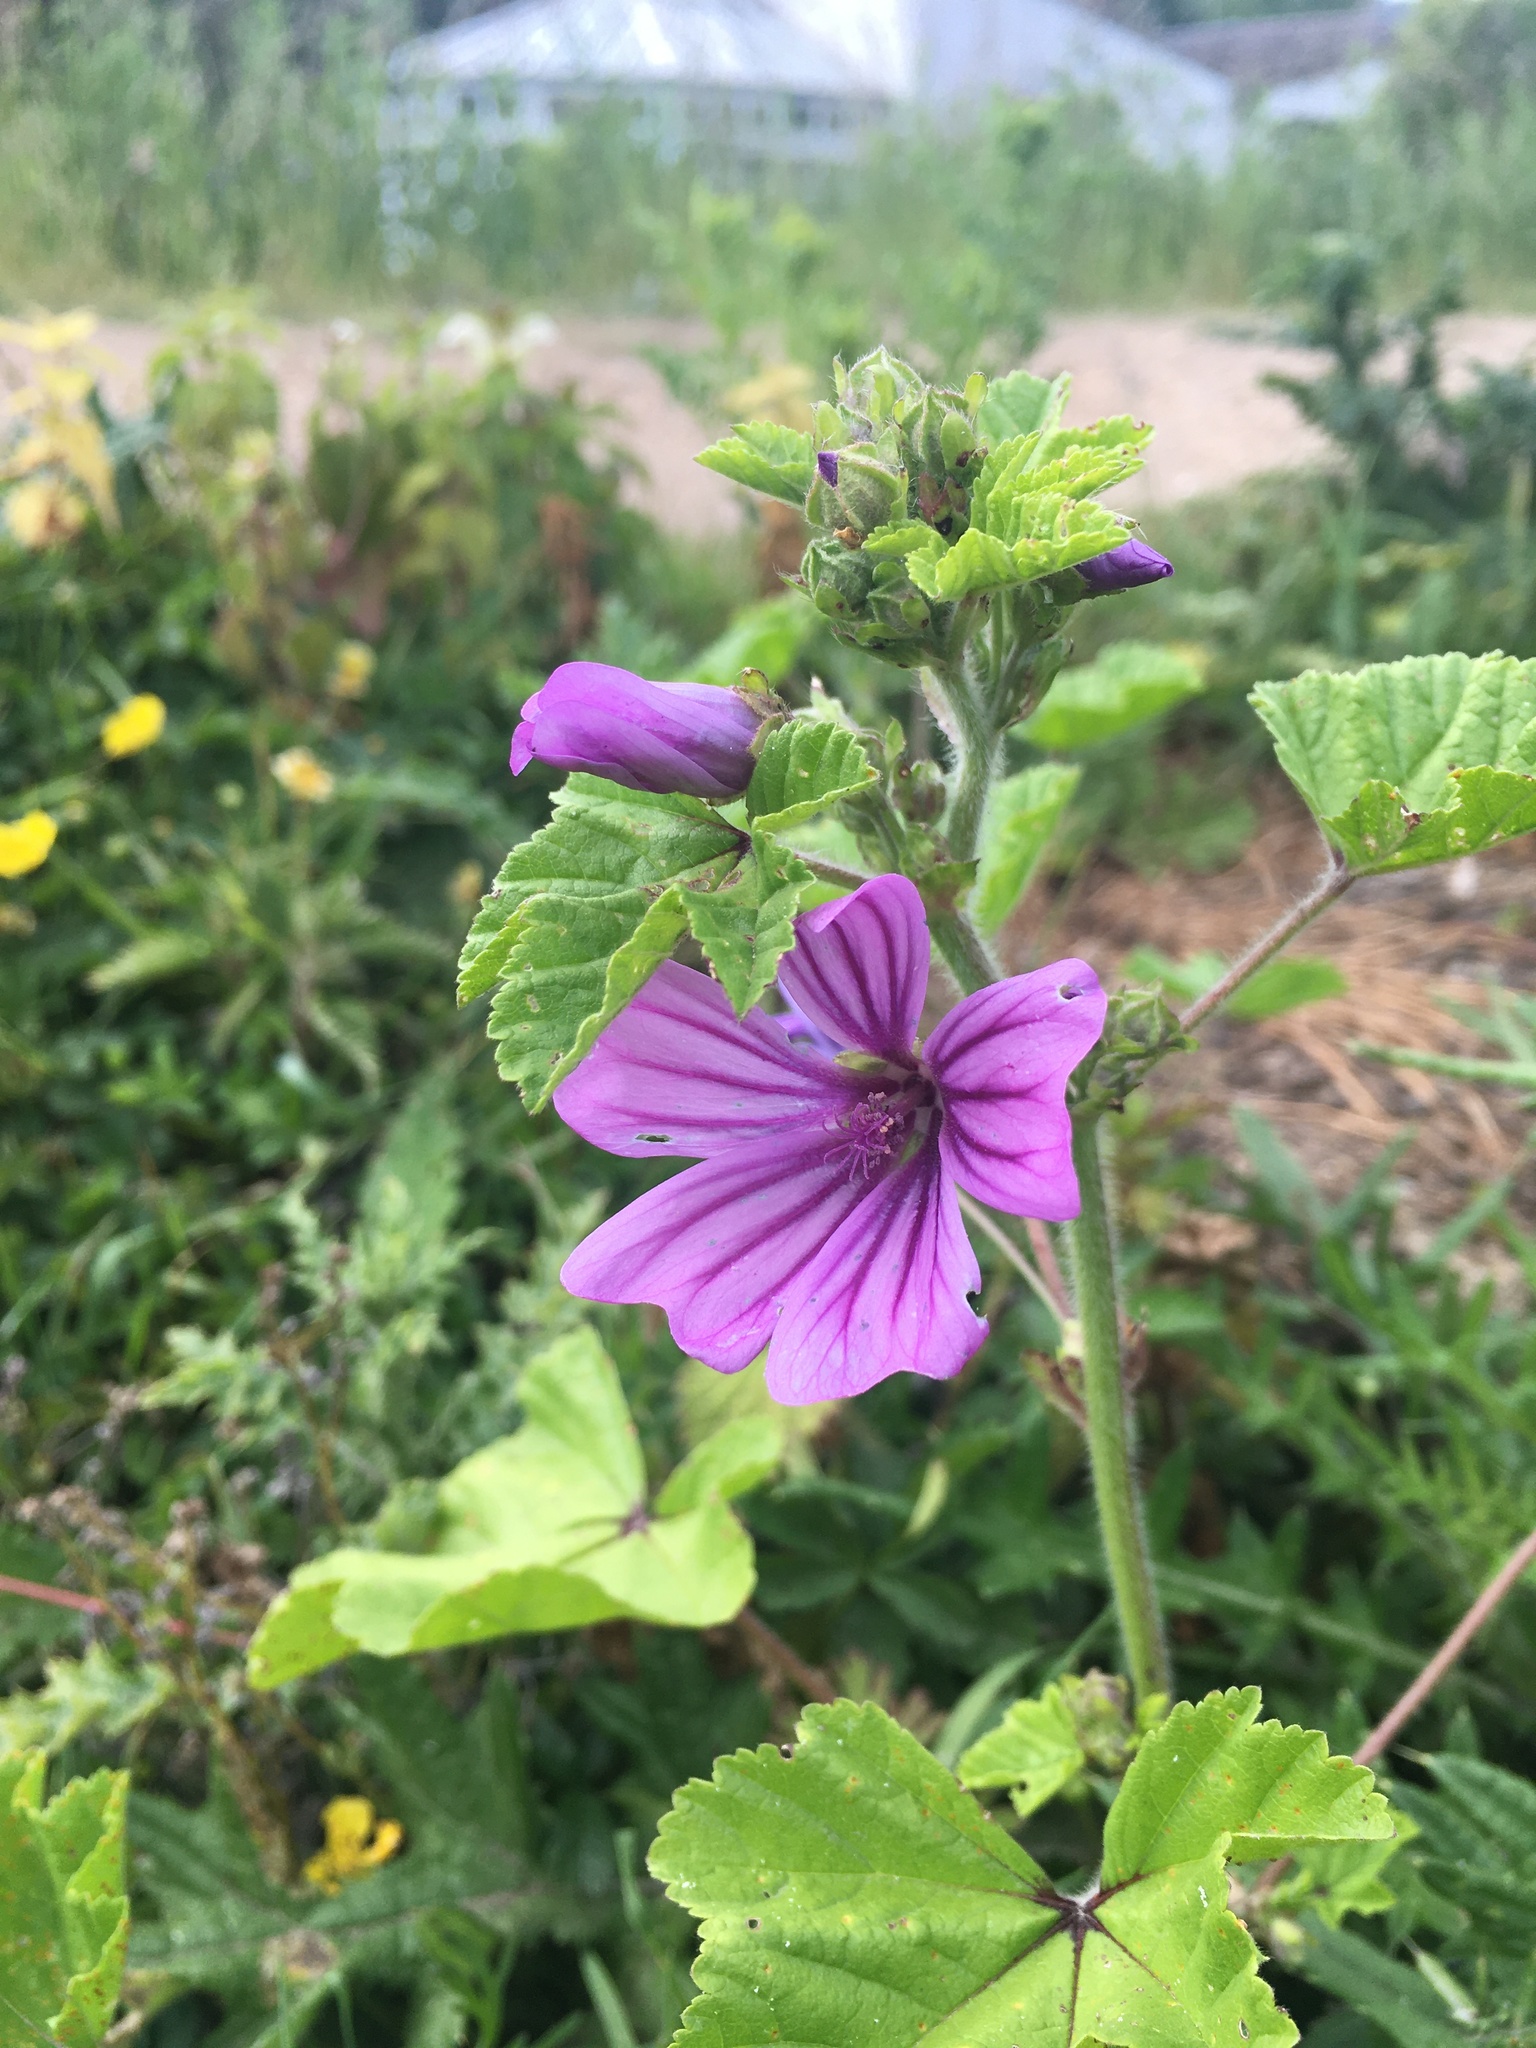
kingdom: Plantae
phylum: Tracheophyta
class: Magnoliopsida
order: Malvales
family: Malvaceae
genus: Malva
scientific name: Malva sylvestris
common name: Common mallow
